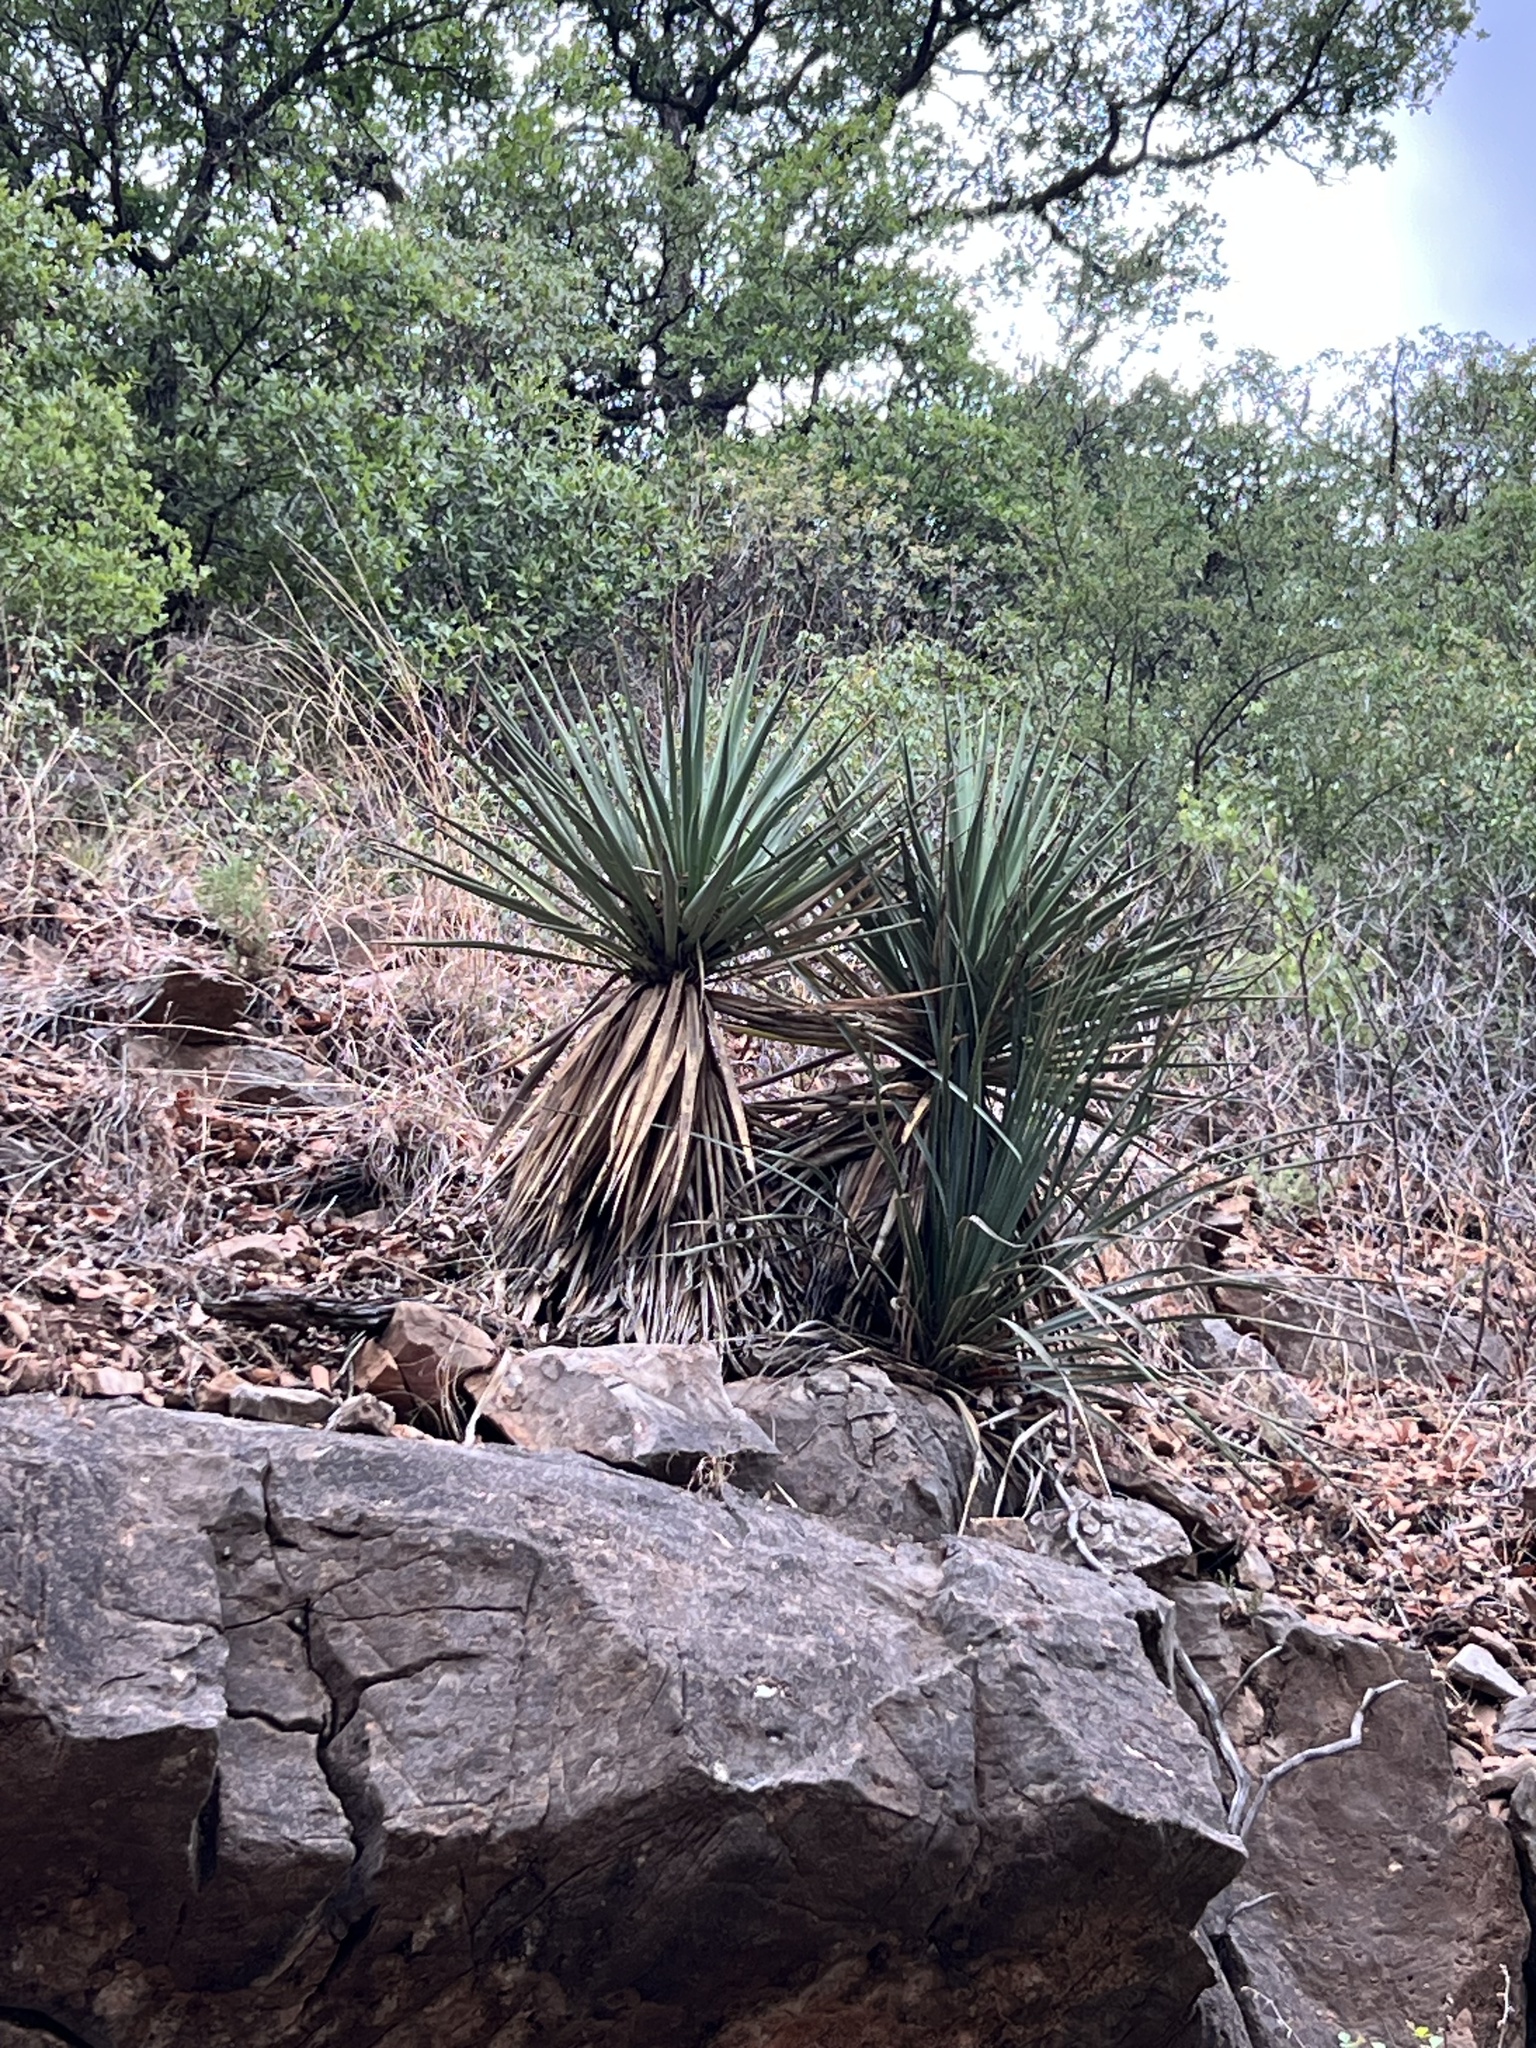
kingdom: Plantae
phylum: Tracheophyta
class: Liliopsida
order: Asparagales
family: Asparagaceae
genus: Yucca
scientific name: Yucca schottii
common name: Hoary yucca
